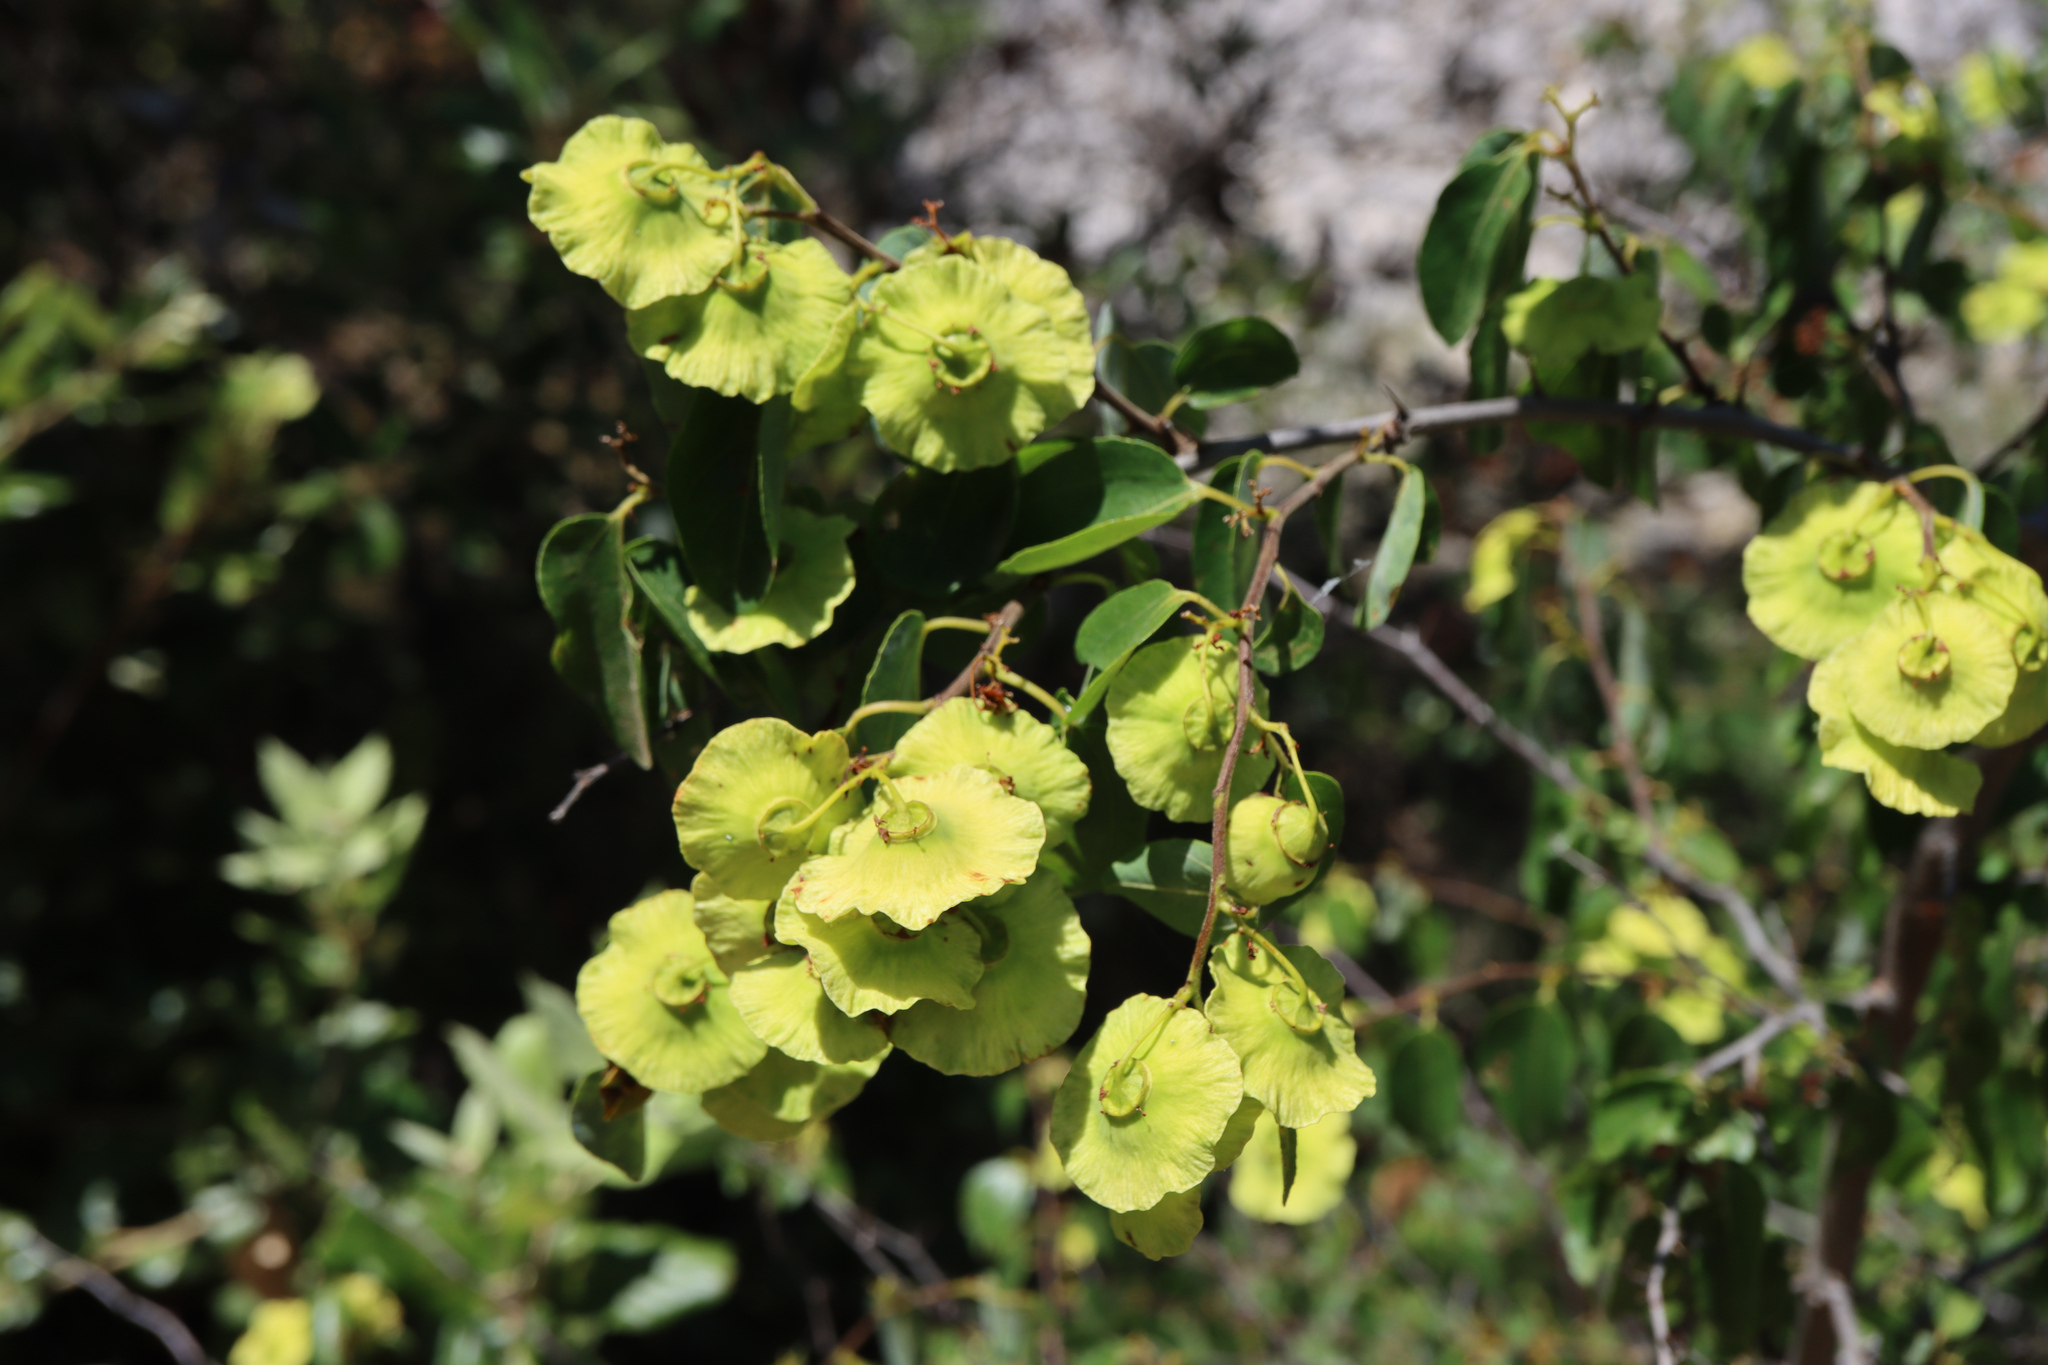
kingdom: Plantae
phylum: Tracheophyta
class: Magnoliopsida
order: Rosales
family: Rhamnaceae
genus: Paliurus
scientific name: Paliurus spina-christi
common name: Jeruselem thorn
